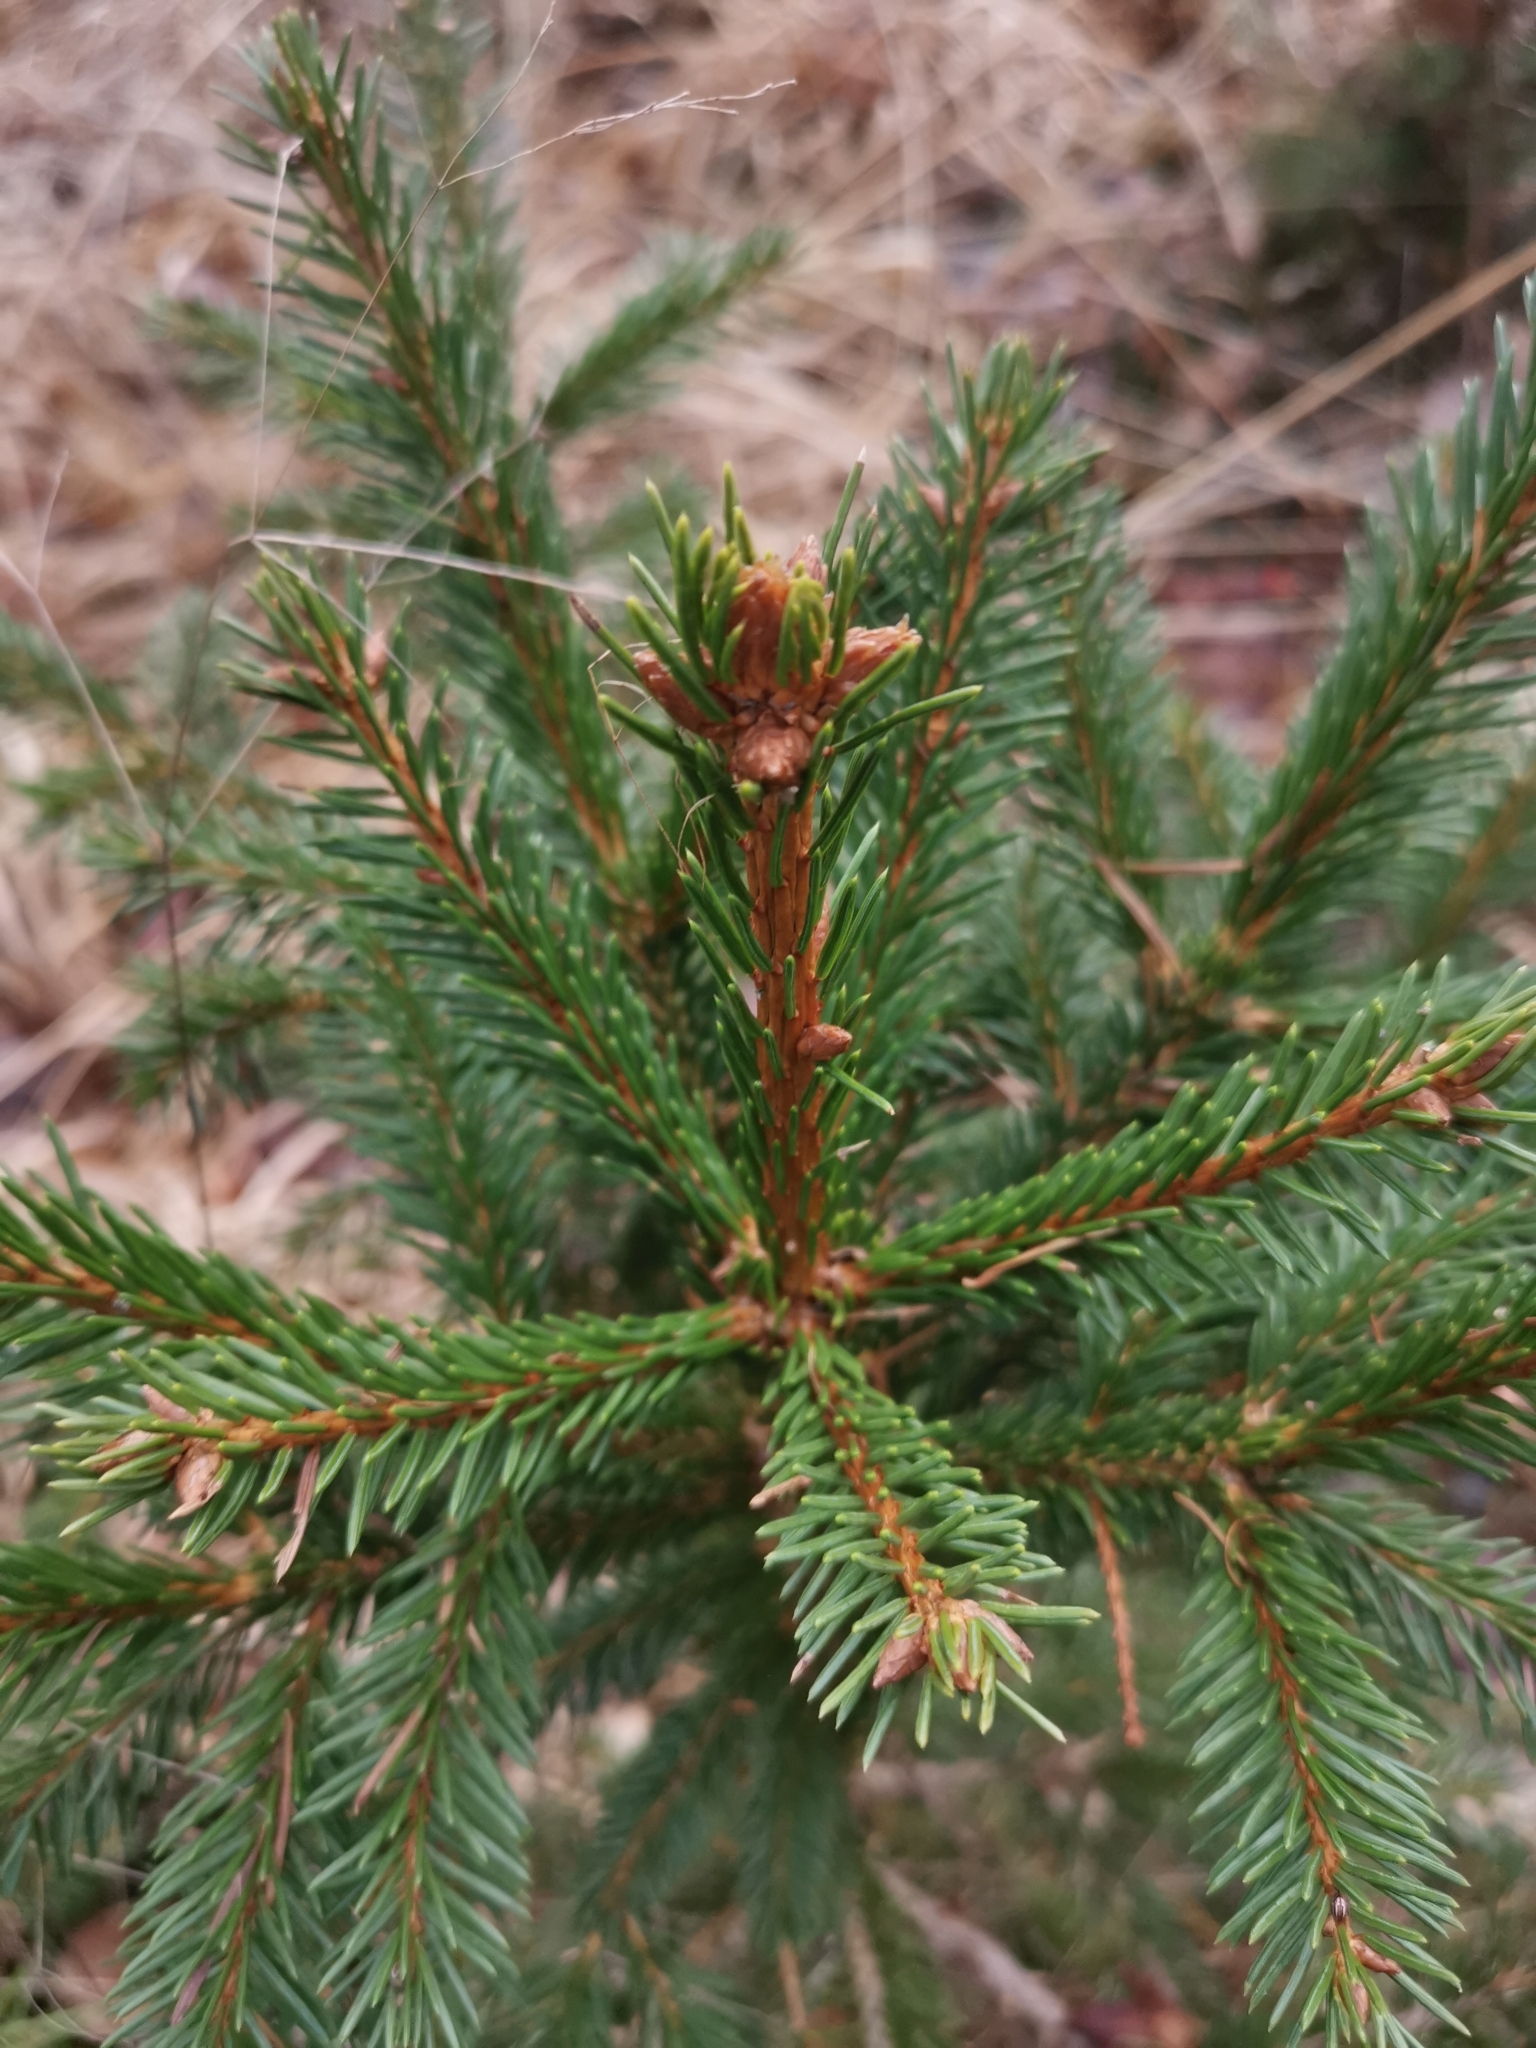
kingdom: Plantae
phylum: Tracheophyta
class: Pinopsida
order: Pinales
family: Pinaceae
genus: Picea
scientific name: Picea abies
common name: Norway spruce
